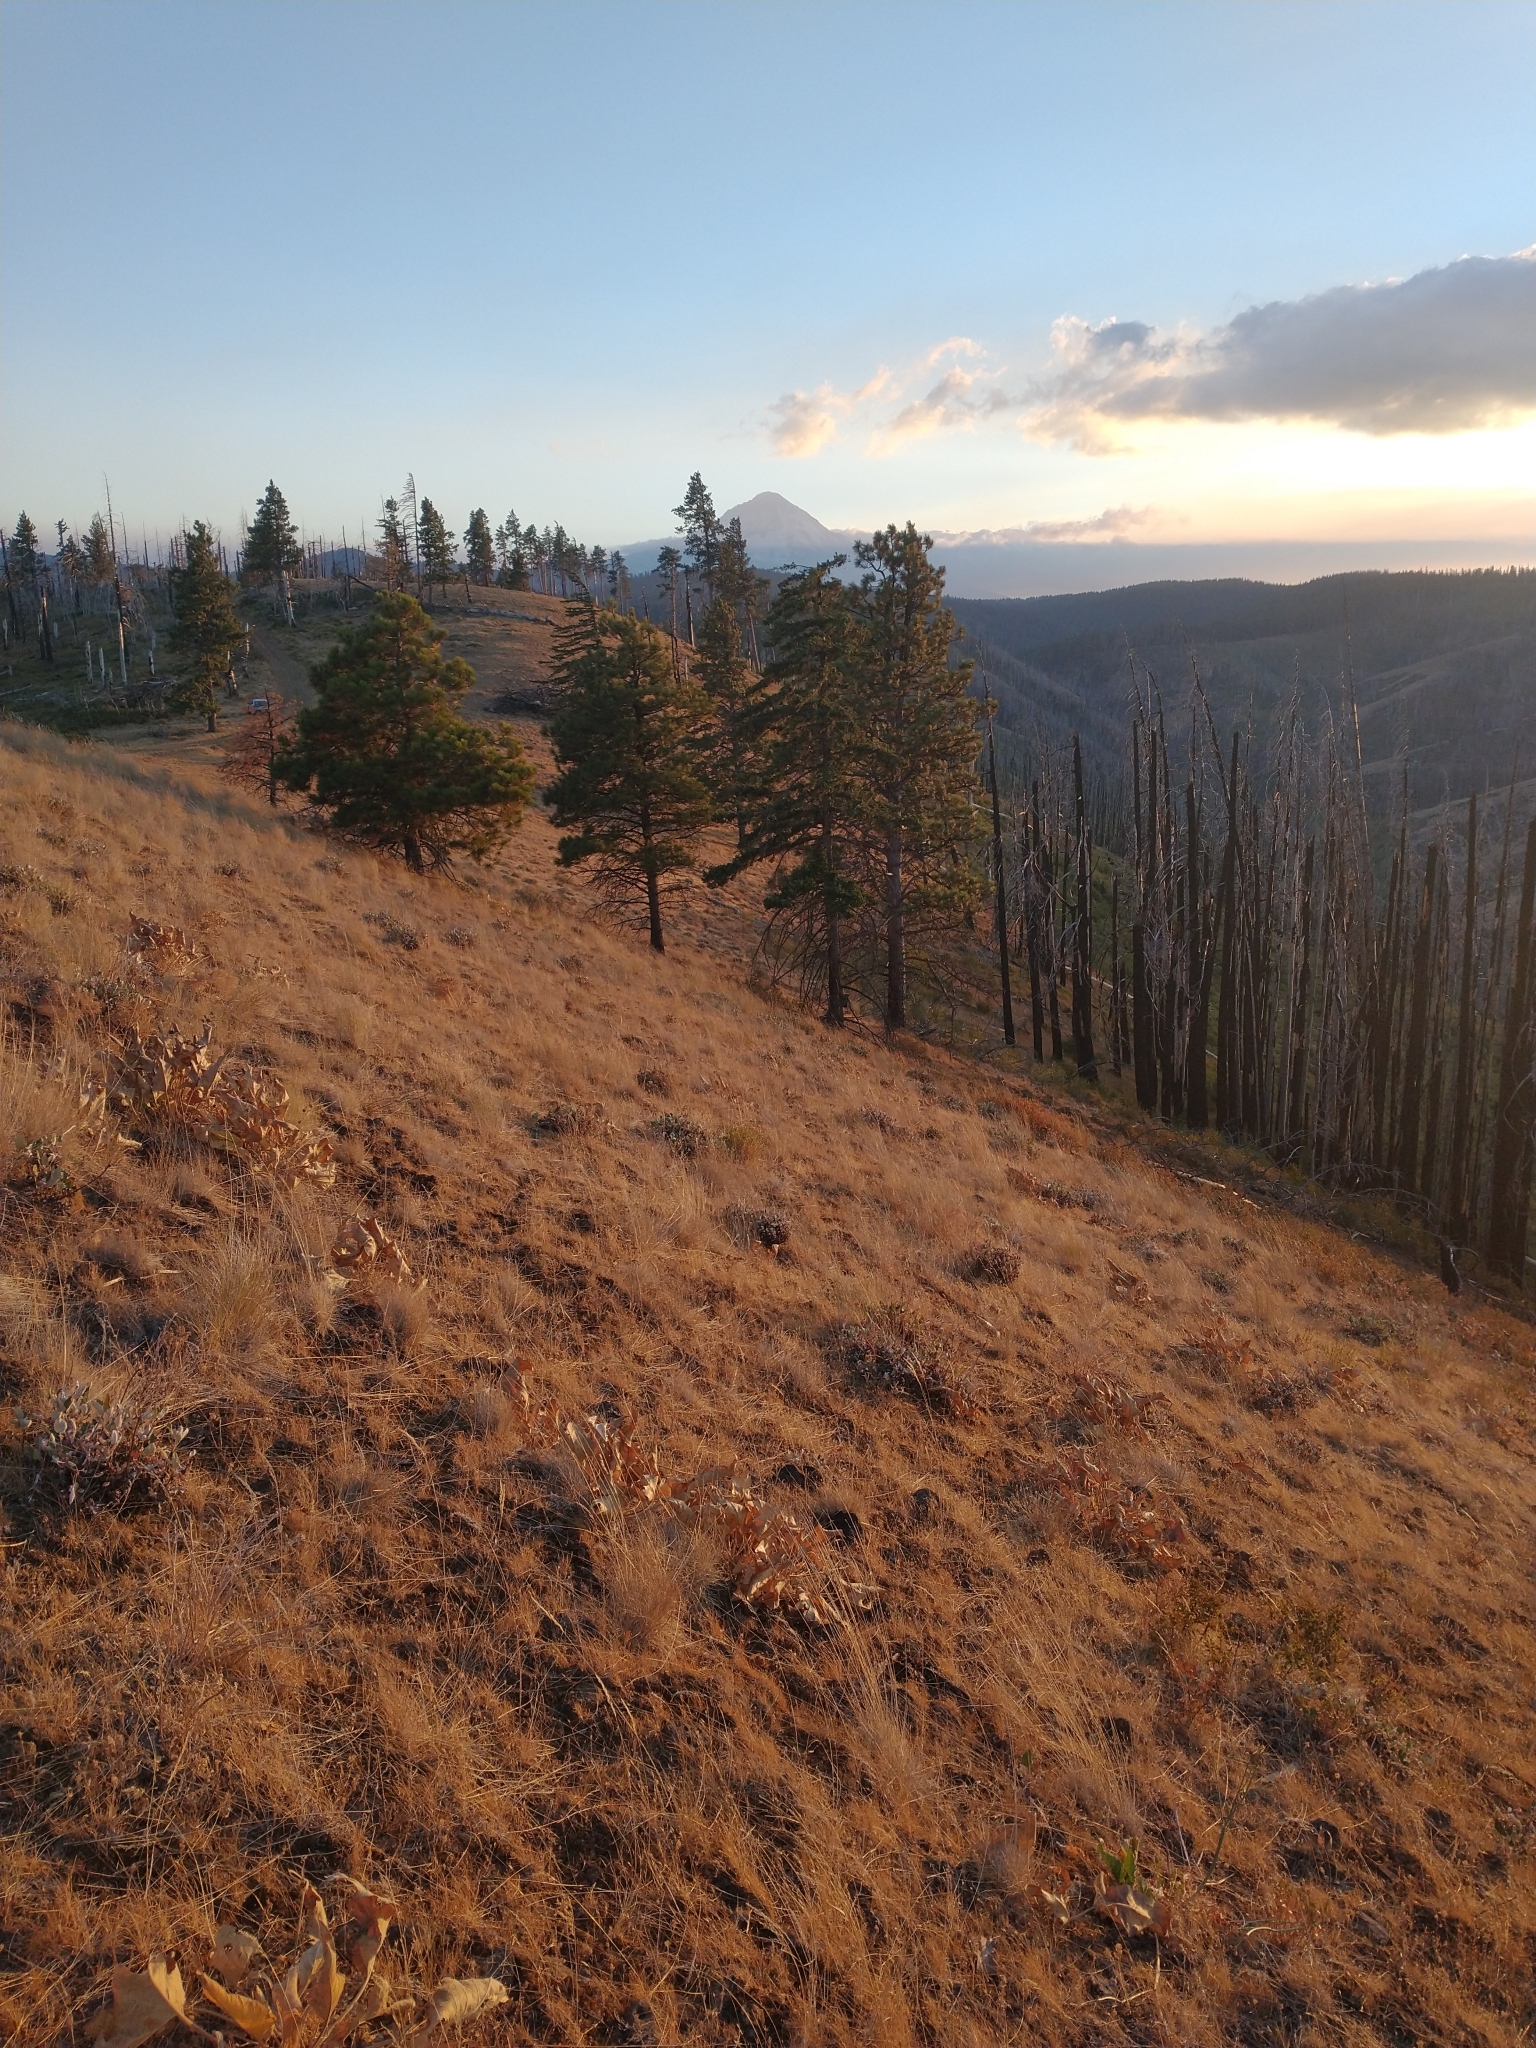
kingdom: Plantae
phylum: Tracheophyta
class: Pinopsida
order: Pinales
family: Pinaceae
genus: Pinus
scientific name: Pinus ponderosa
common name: Western yellow-pine
